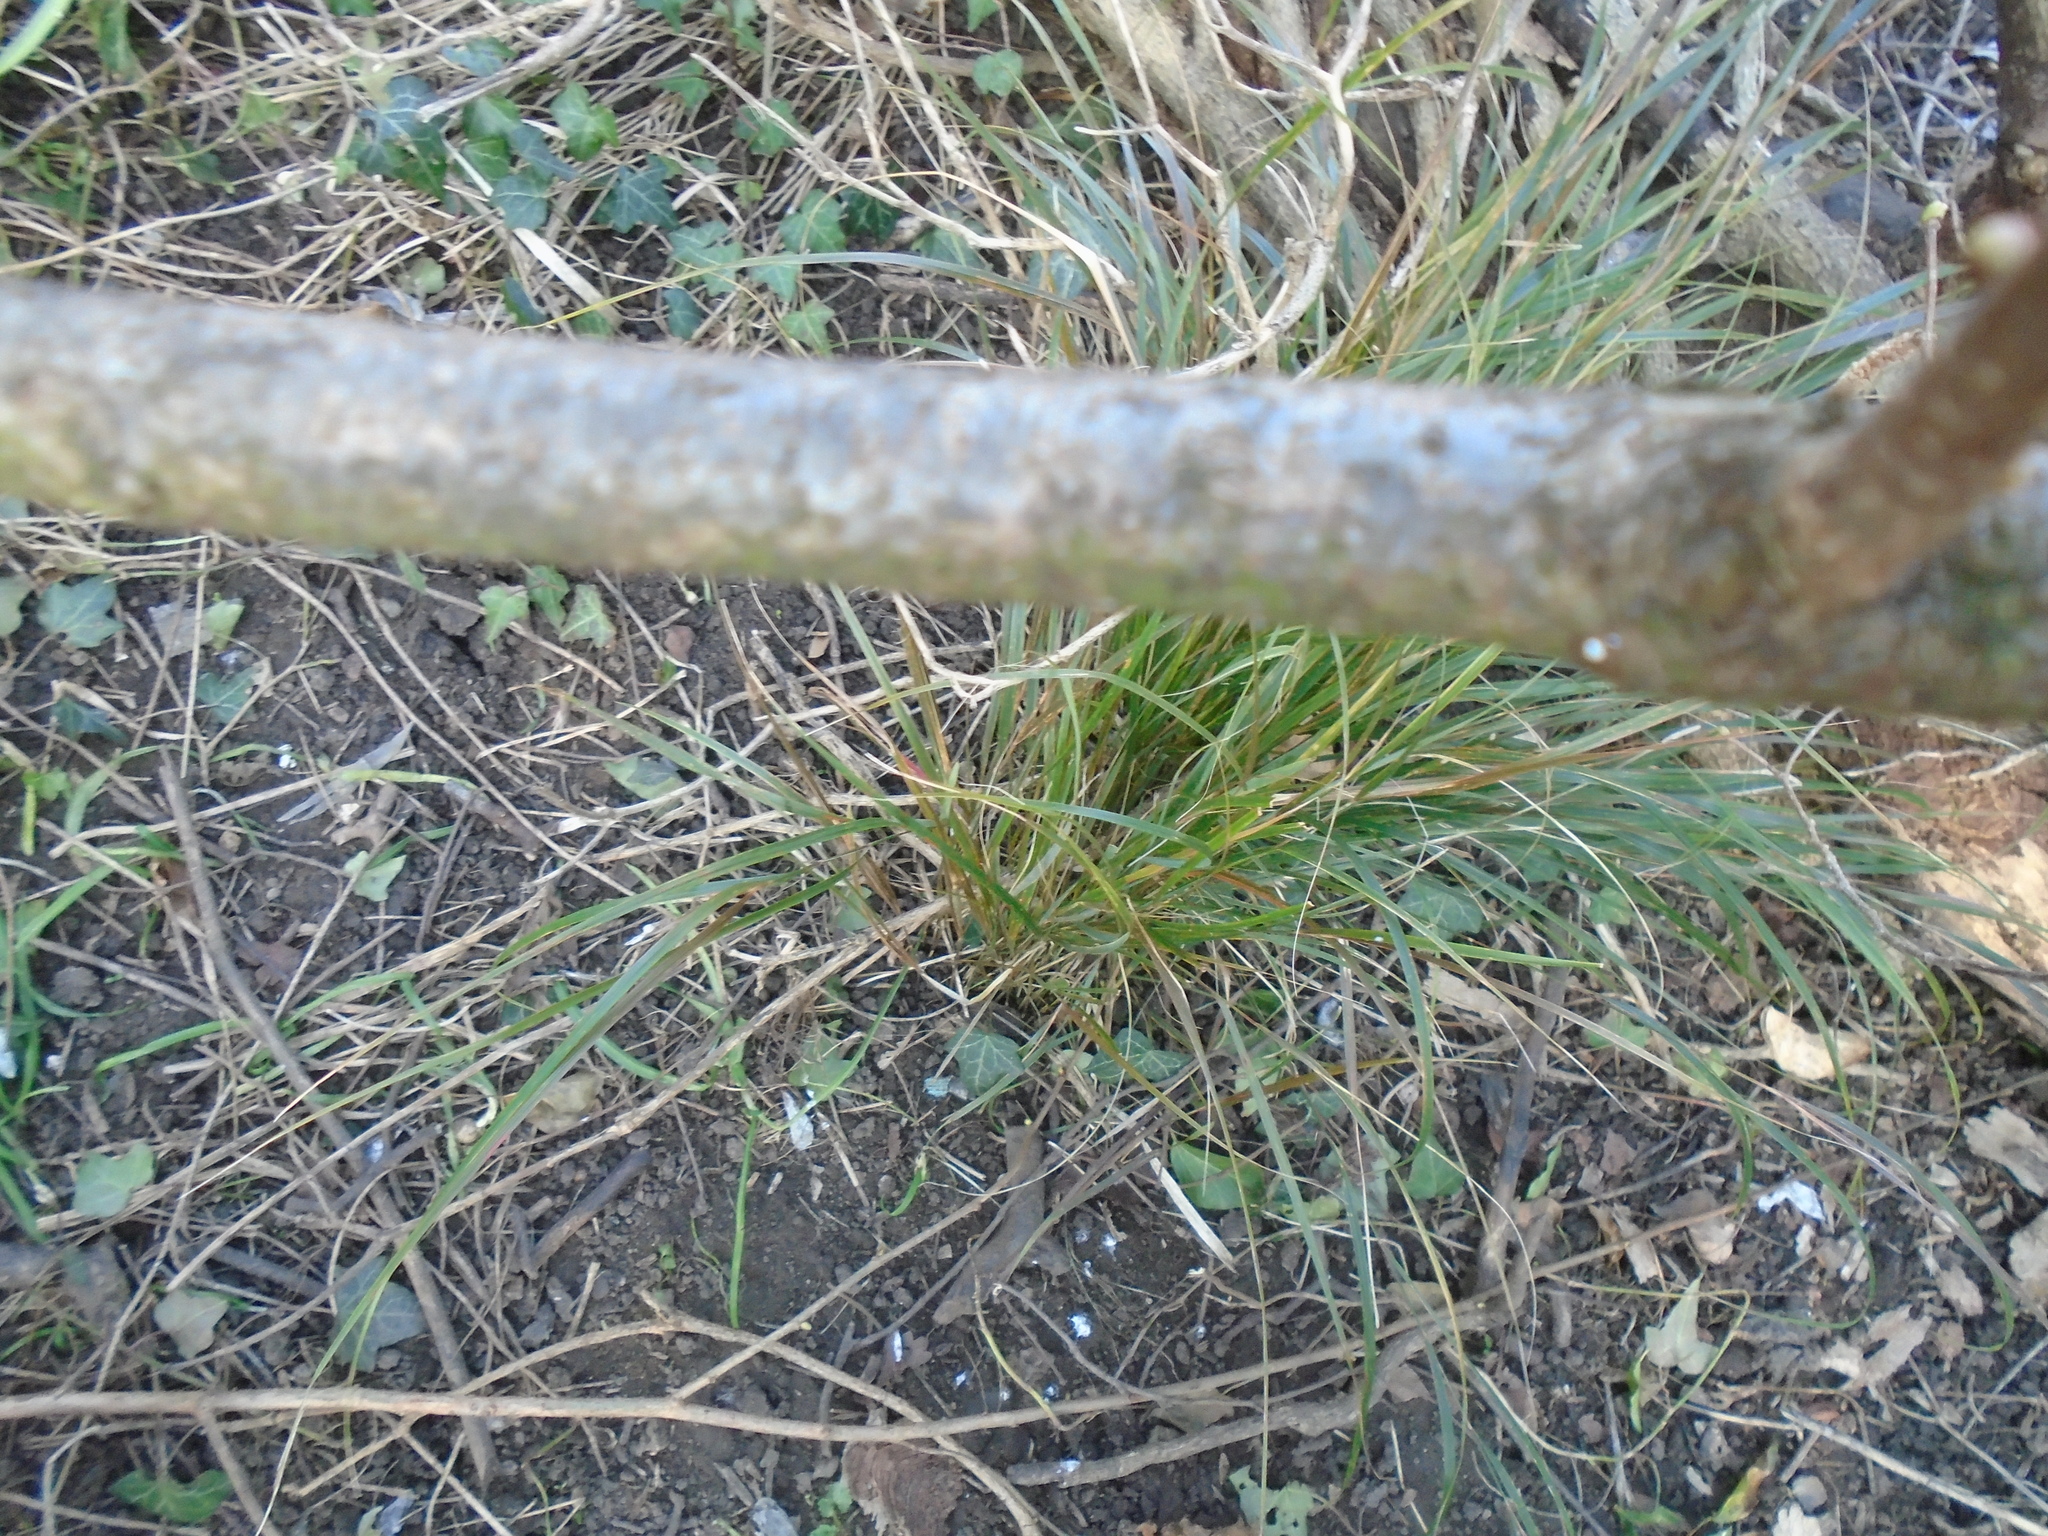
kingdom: Plantae
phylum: Tracheophyta
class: Magnoliopsida
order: Fagales
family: Betulaceae
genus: Corylus
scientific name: Corylus avellana
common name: European hazel
